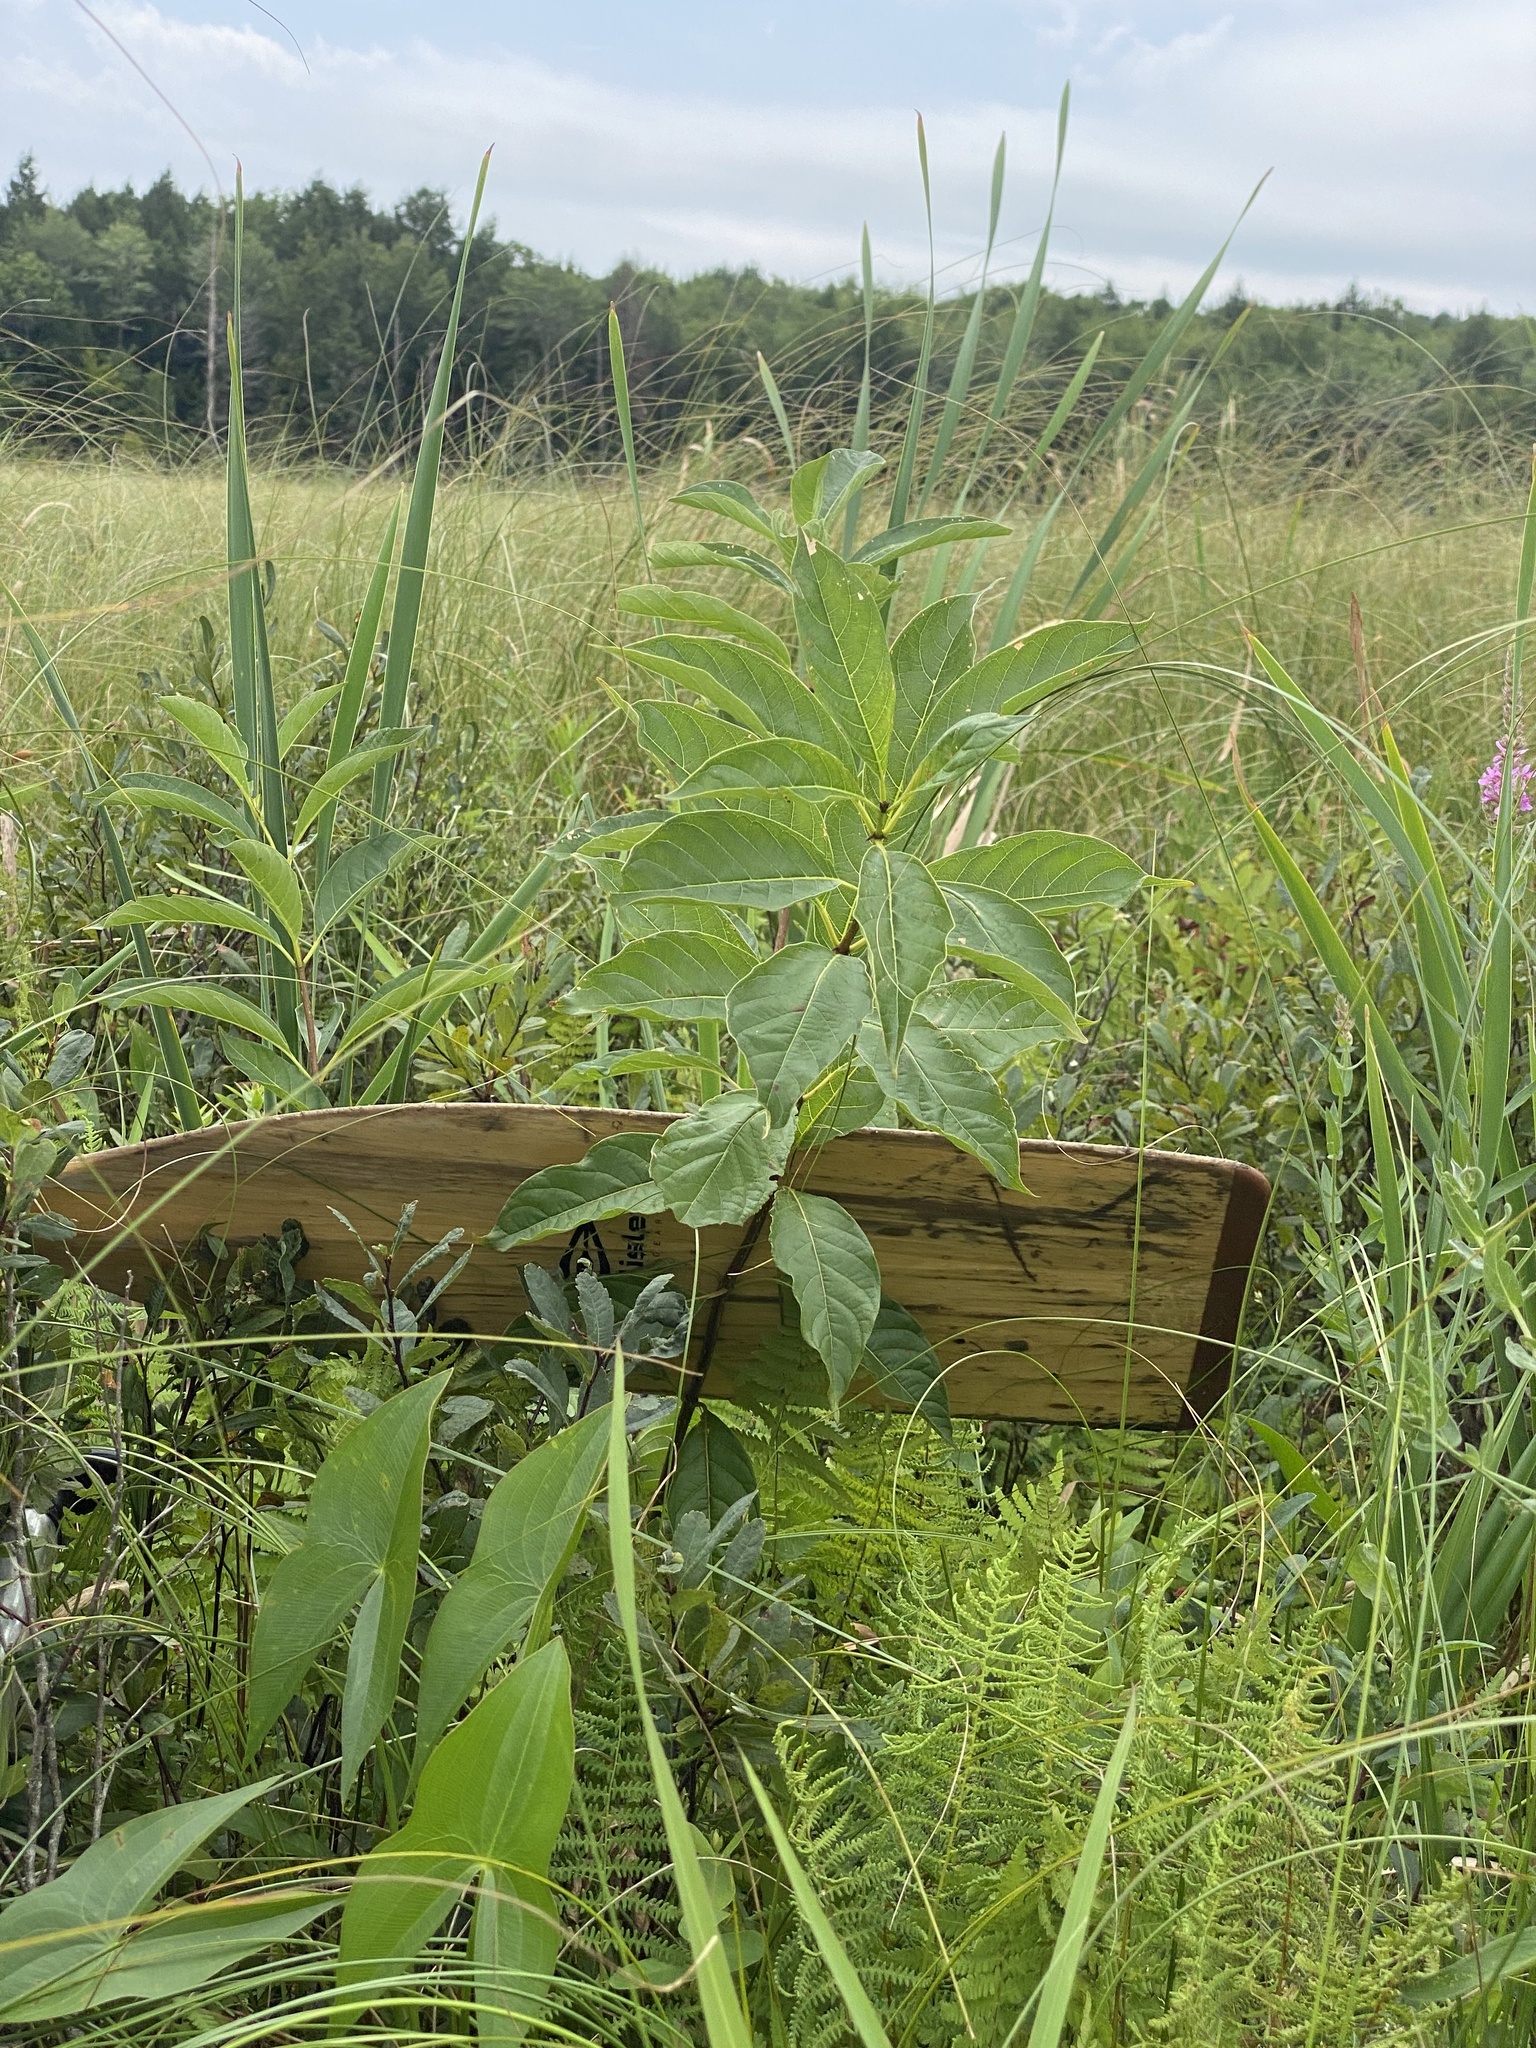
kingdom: Plantae
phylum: Tracheophyta
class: Magnoliopsida
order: Gentianales
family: Rubiaceae
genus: Cephalanthus
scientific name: Cephalanthus occidentalis
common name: Button-willow
